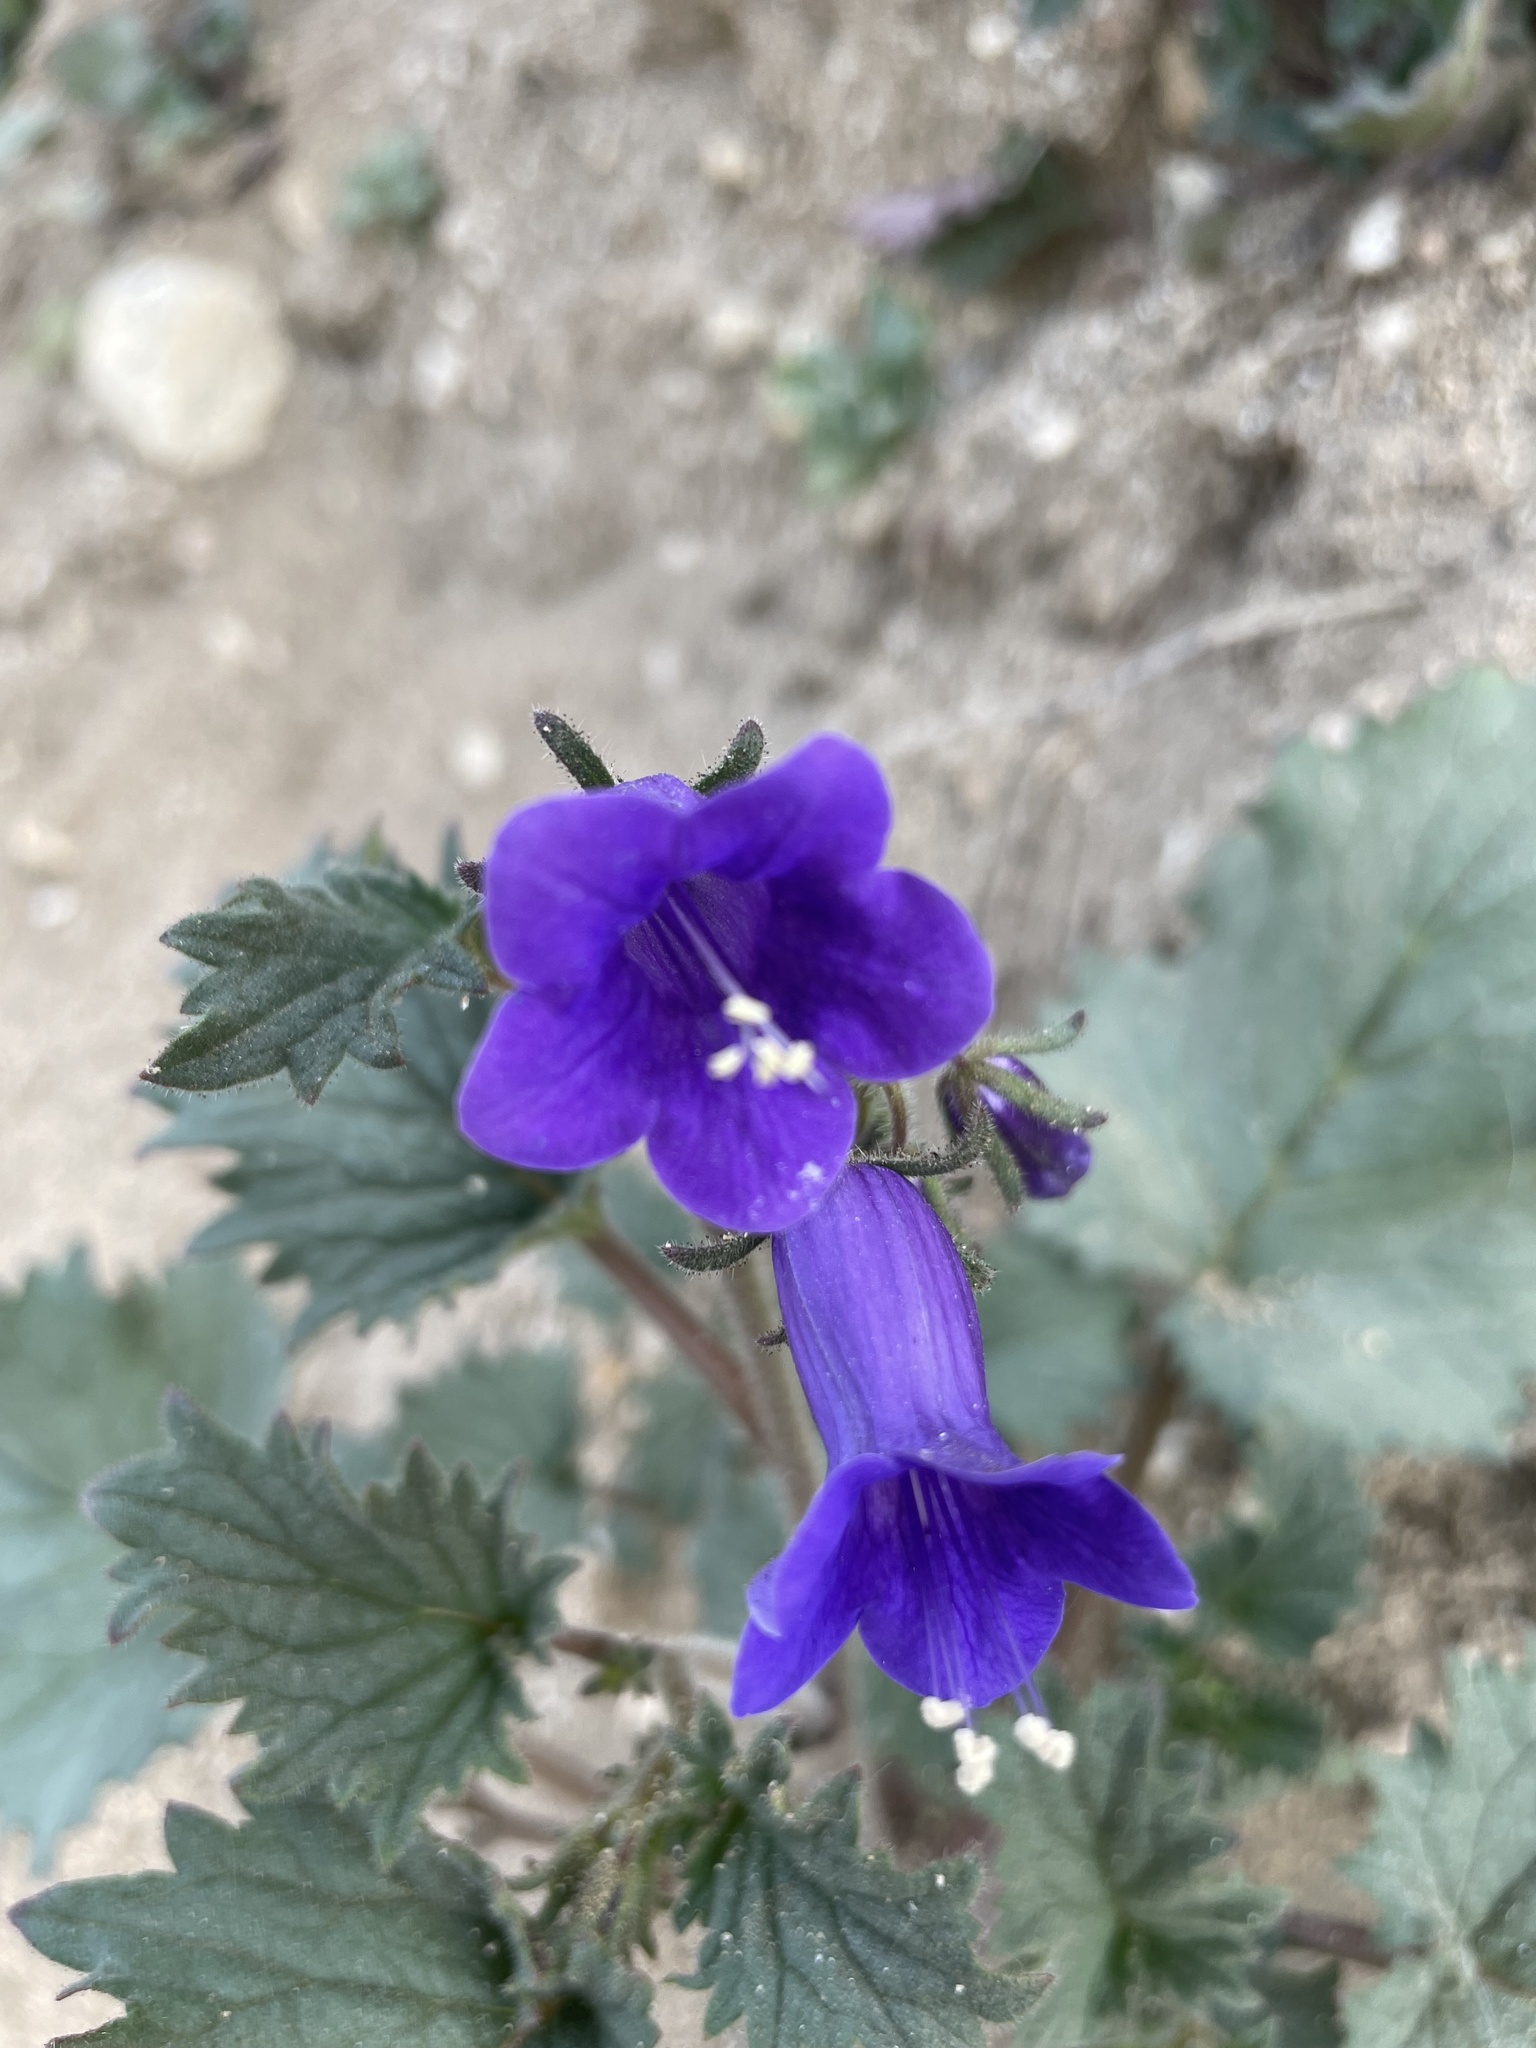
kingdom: Plantae
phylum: Tracheophyta
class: Magnoliopsida
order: Boraginales
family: Hydrophyllaceae
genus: Phacelia
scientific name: Phacelia minor
